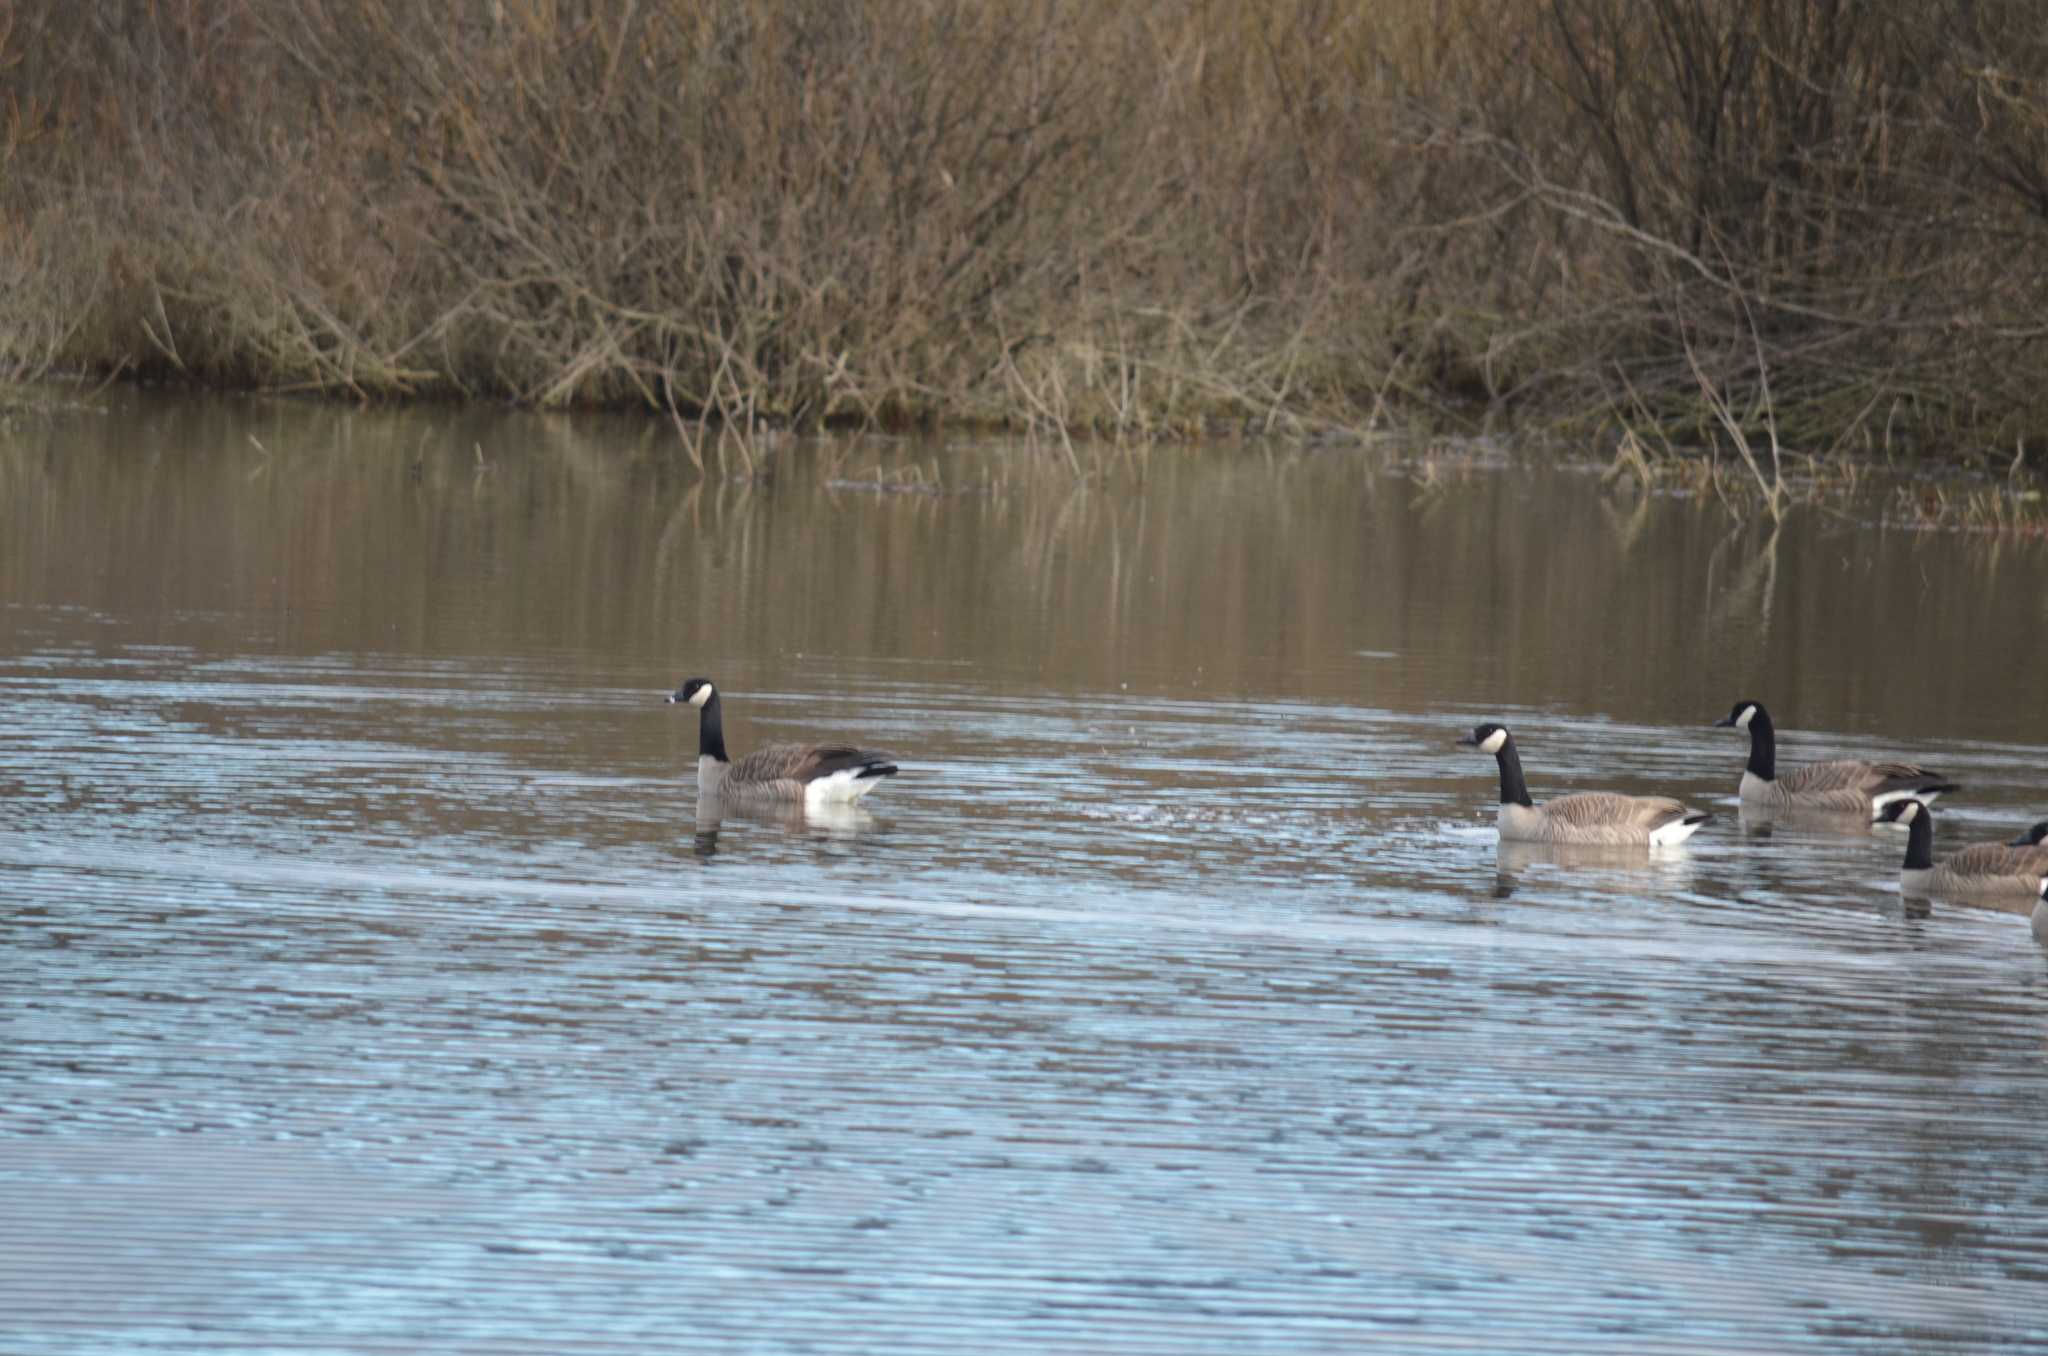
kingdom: Animalia
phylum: Chordata
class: Aves
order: Anseriformes
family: Anatidae
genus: Branta
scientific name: Branta canadensis
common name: Canada goose
